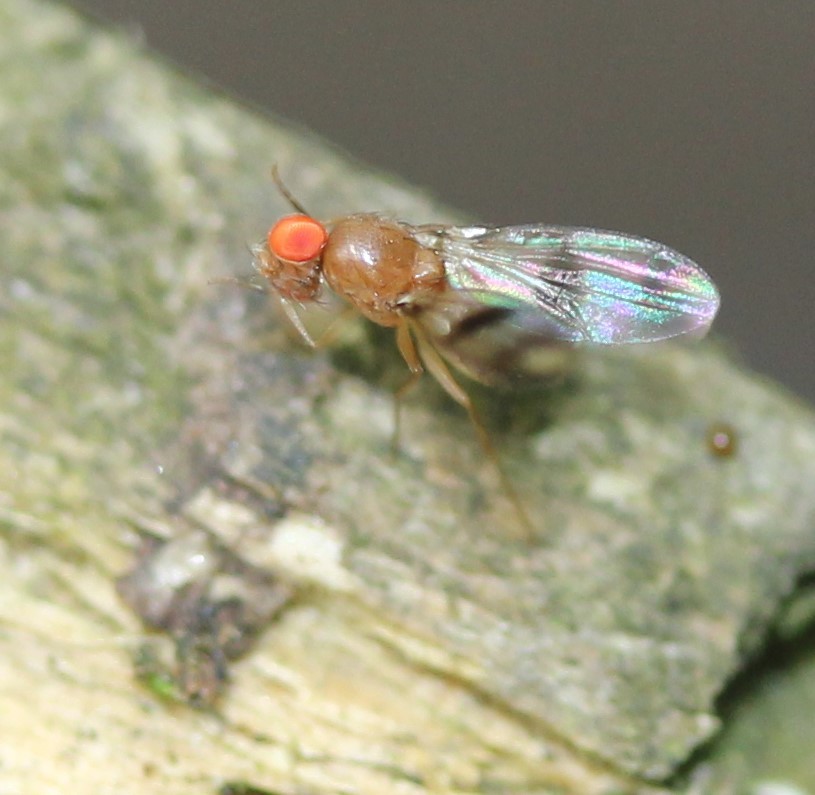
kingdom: Animalia
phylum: Arthropoda
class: Insecta
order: Diptera
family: Drosophilidae
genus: Chymomyza
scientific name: Chymomyza amoena
